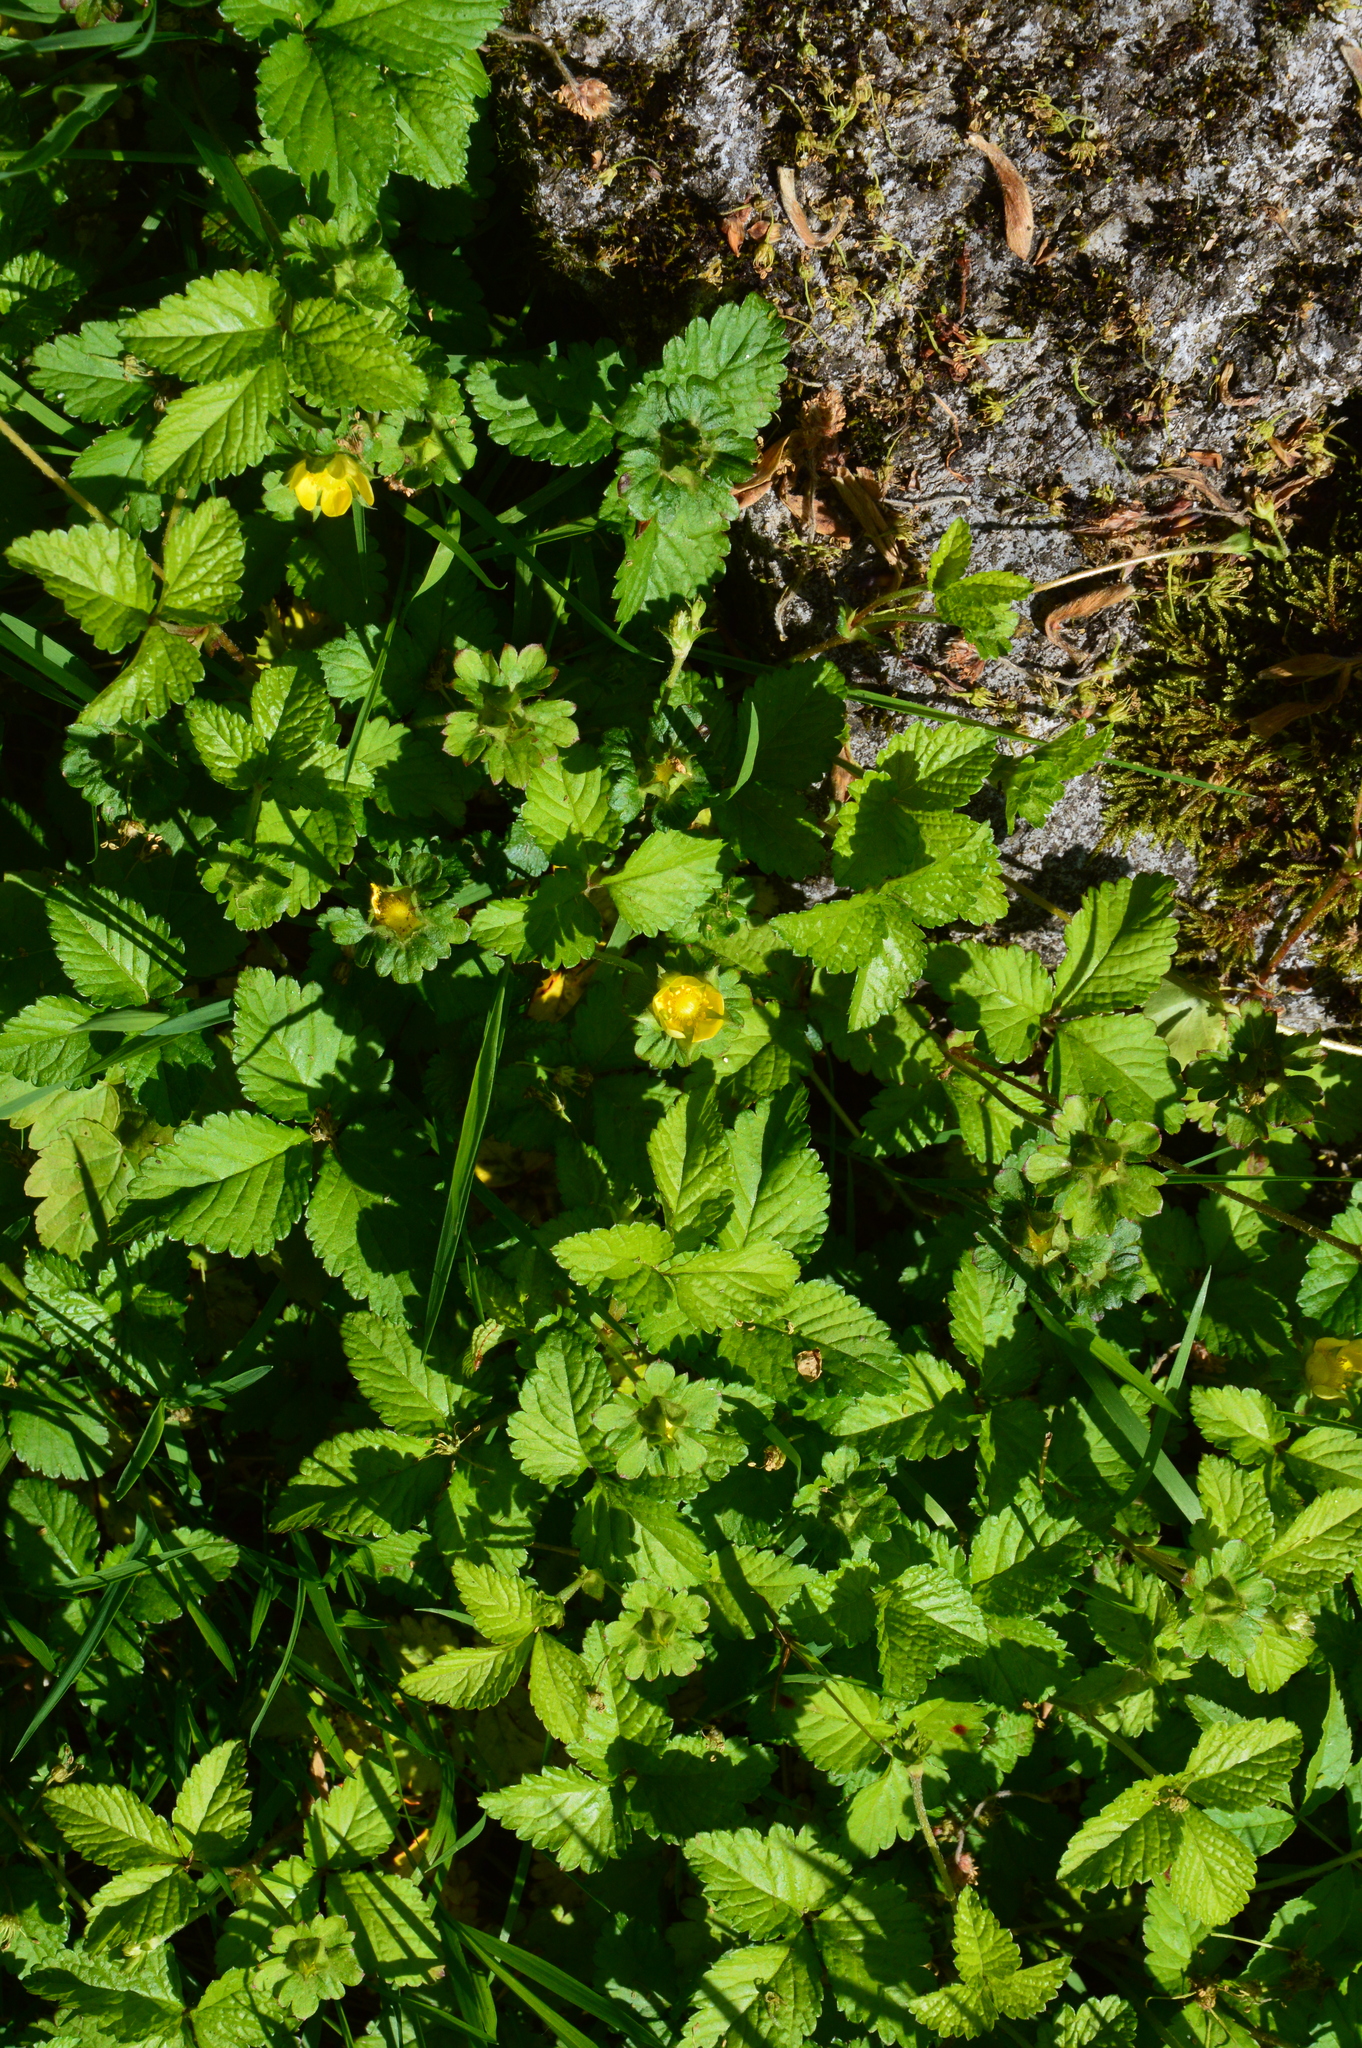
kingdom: Plantae
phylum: Tracheophyta
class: Magnoliopsida
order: Rosales
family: Rosaceae
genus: Potentilla
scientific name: Potentilla indica
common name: Yellow-flowered strawberry
